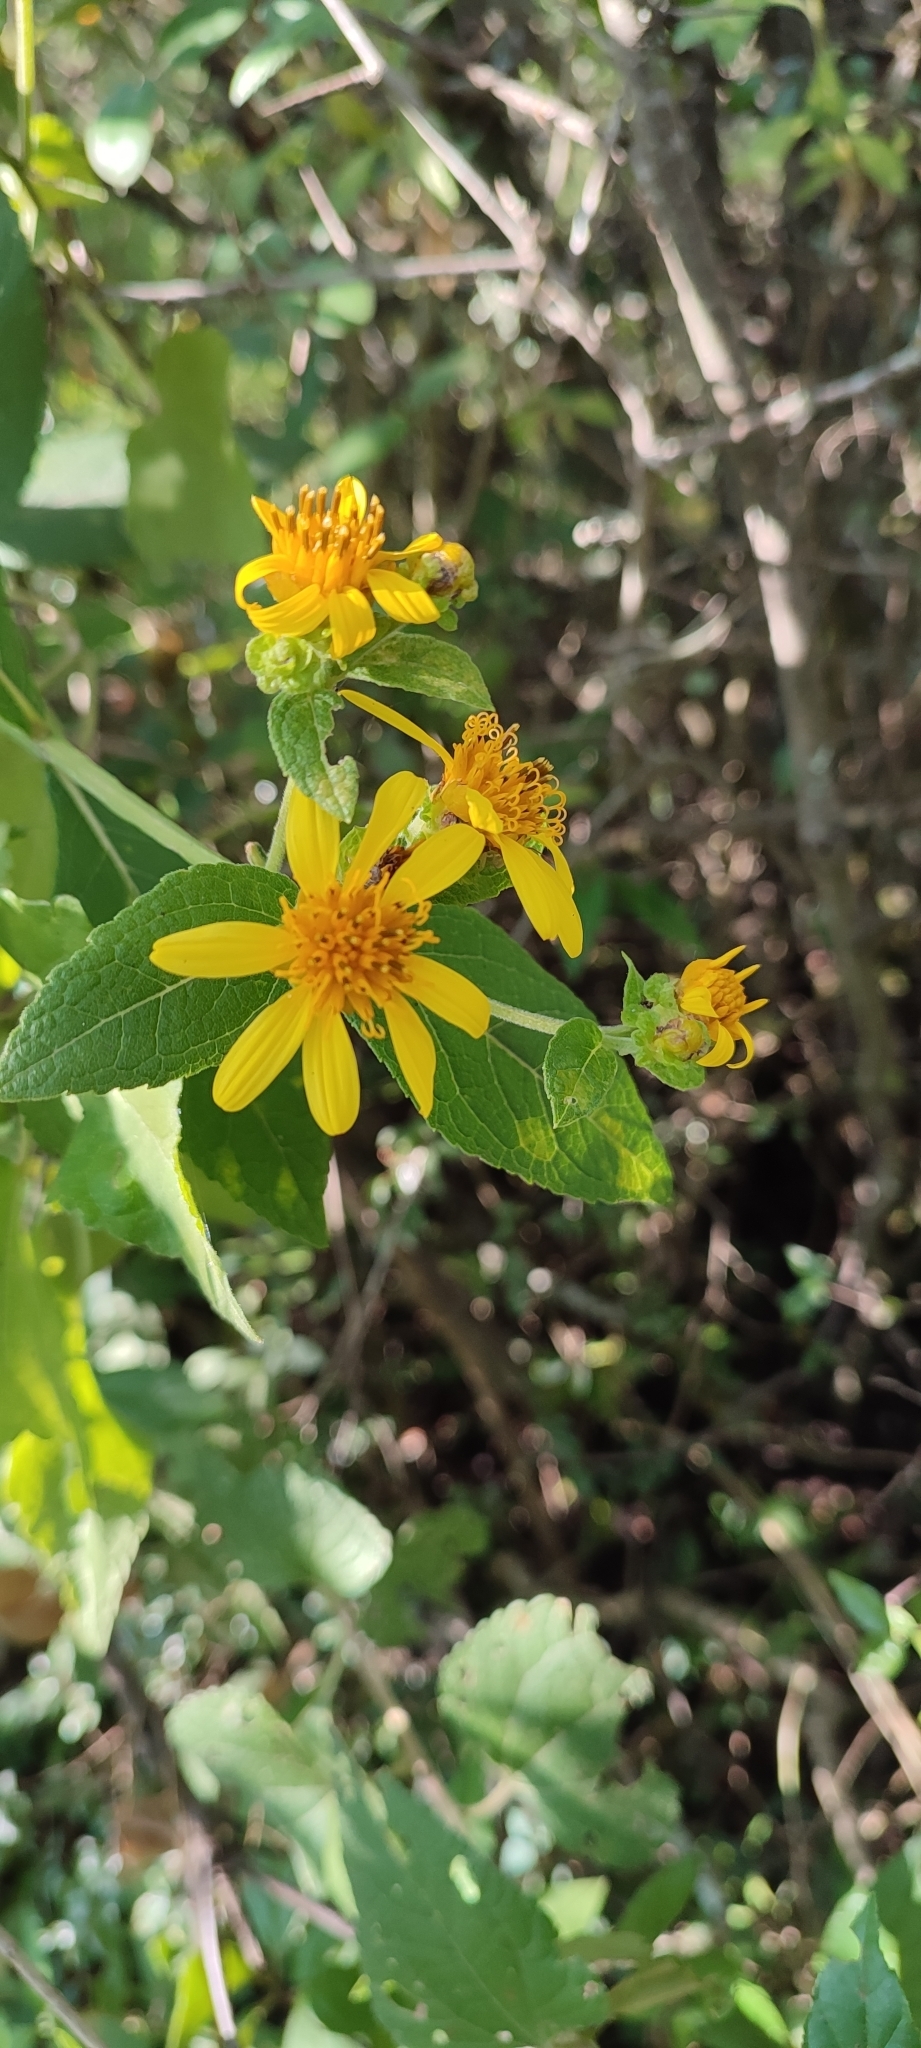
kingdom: Plantae
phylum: Tracheophyta
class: Magnoliopsida
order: Asterales
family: Asteraceae
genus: Verbesina
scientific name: Verbesina sphaerocephala
